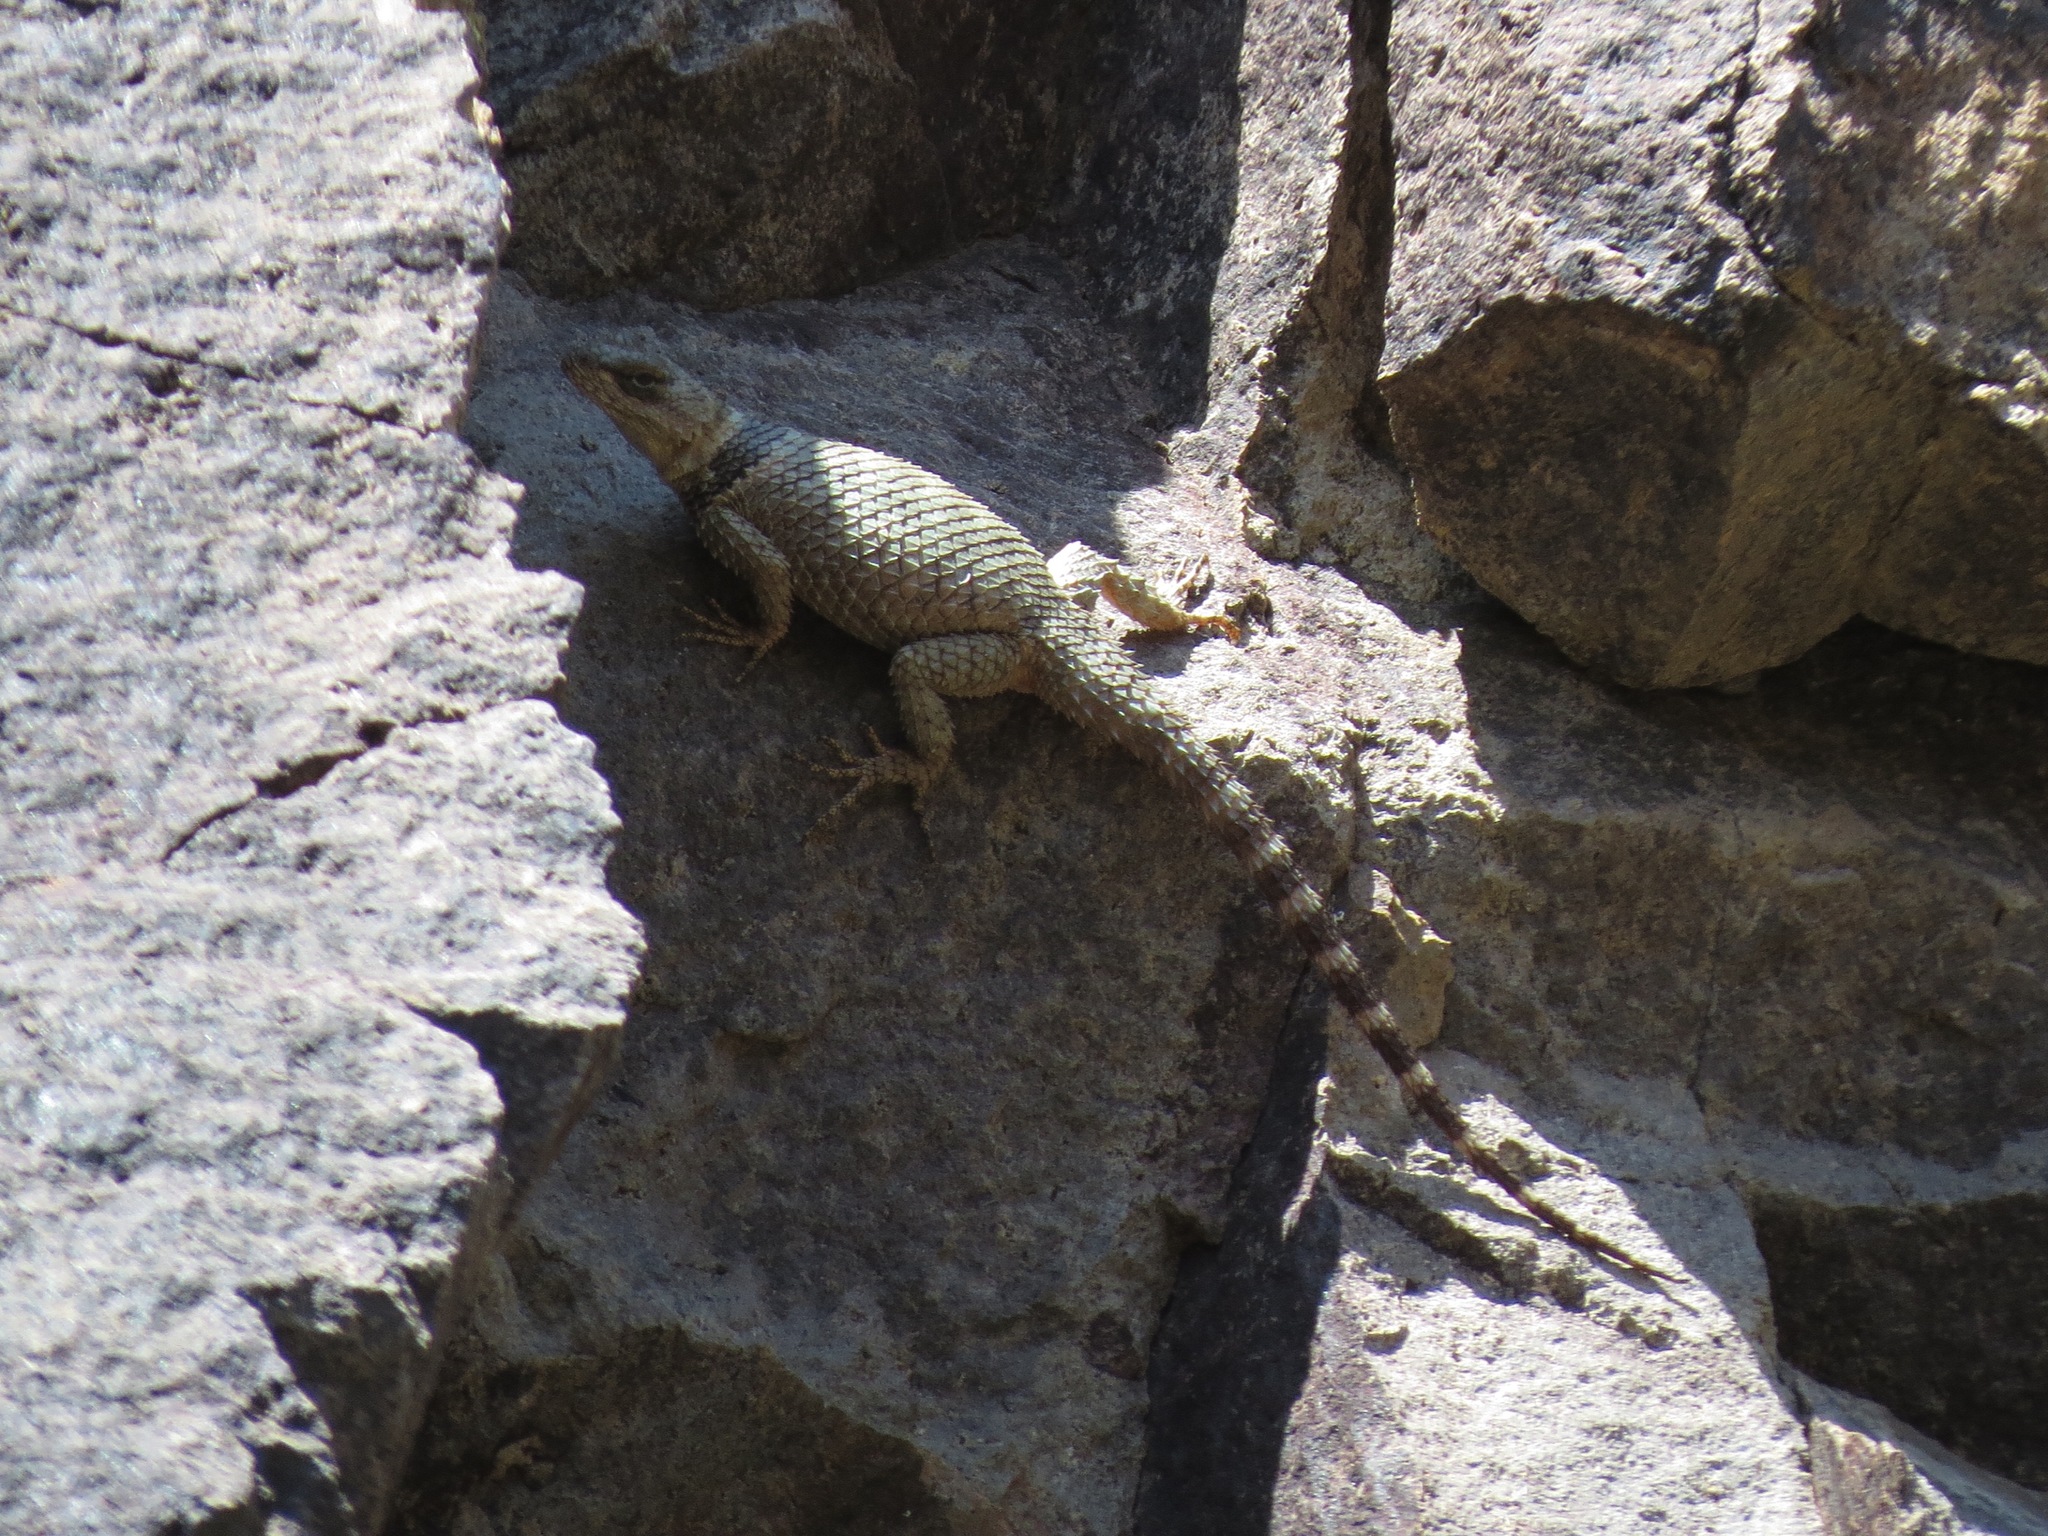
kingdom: Animalia
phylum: Chordata
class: Squamata
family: Phrynosomatidae
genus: Sceloporus
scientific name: Sceloporus poinsettii
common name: Crevice spiny lizard
